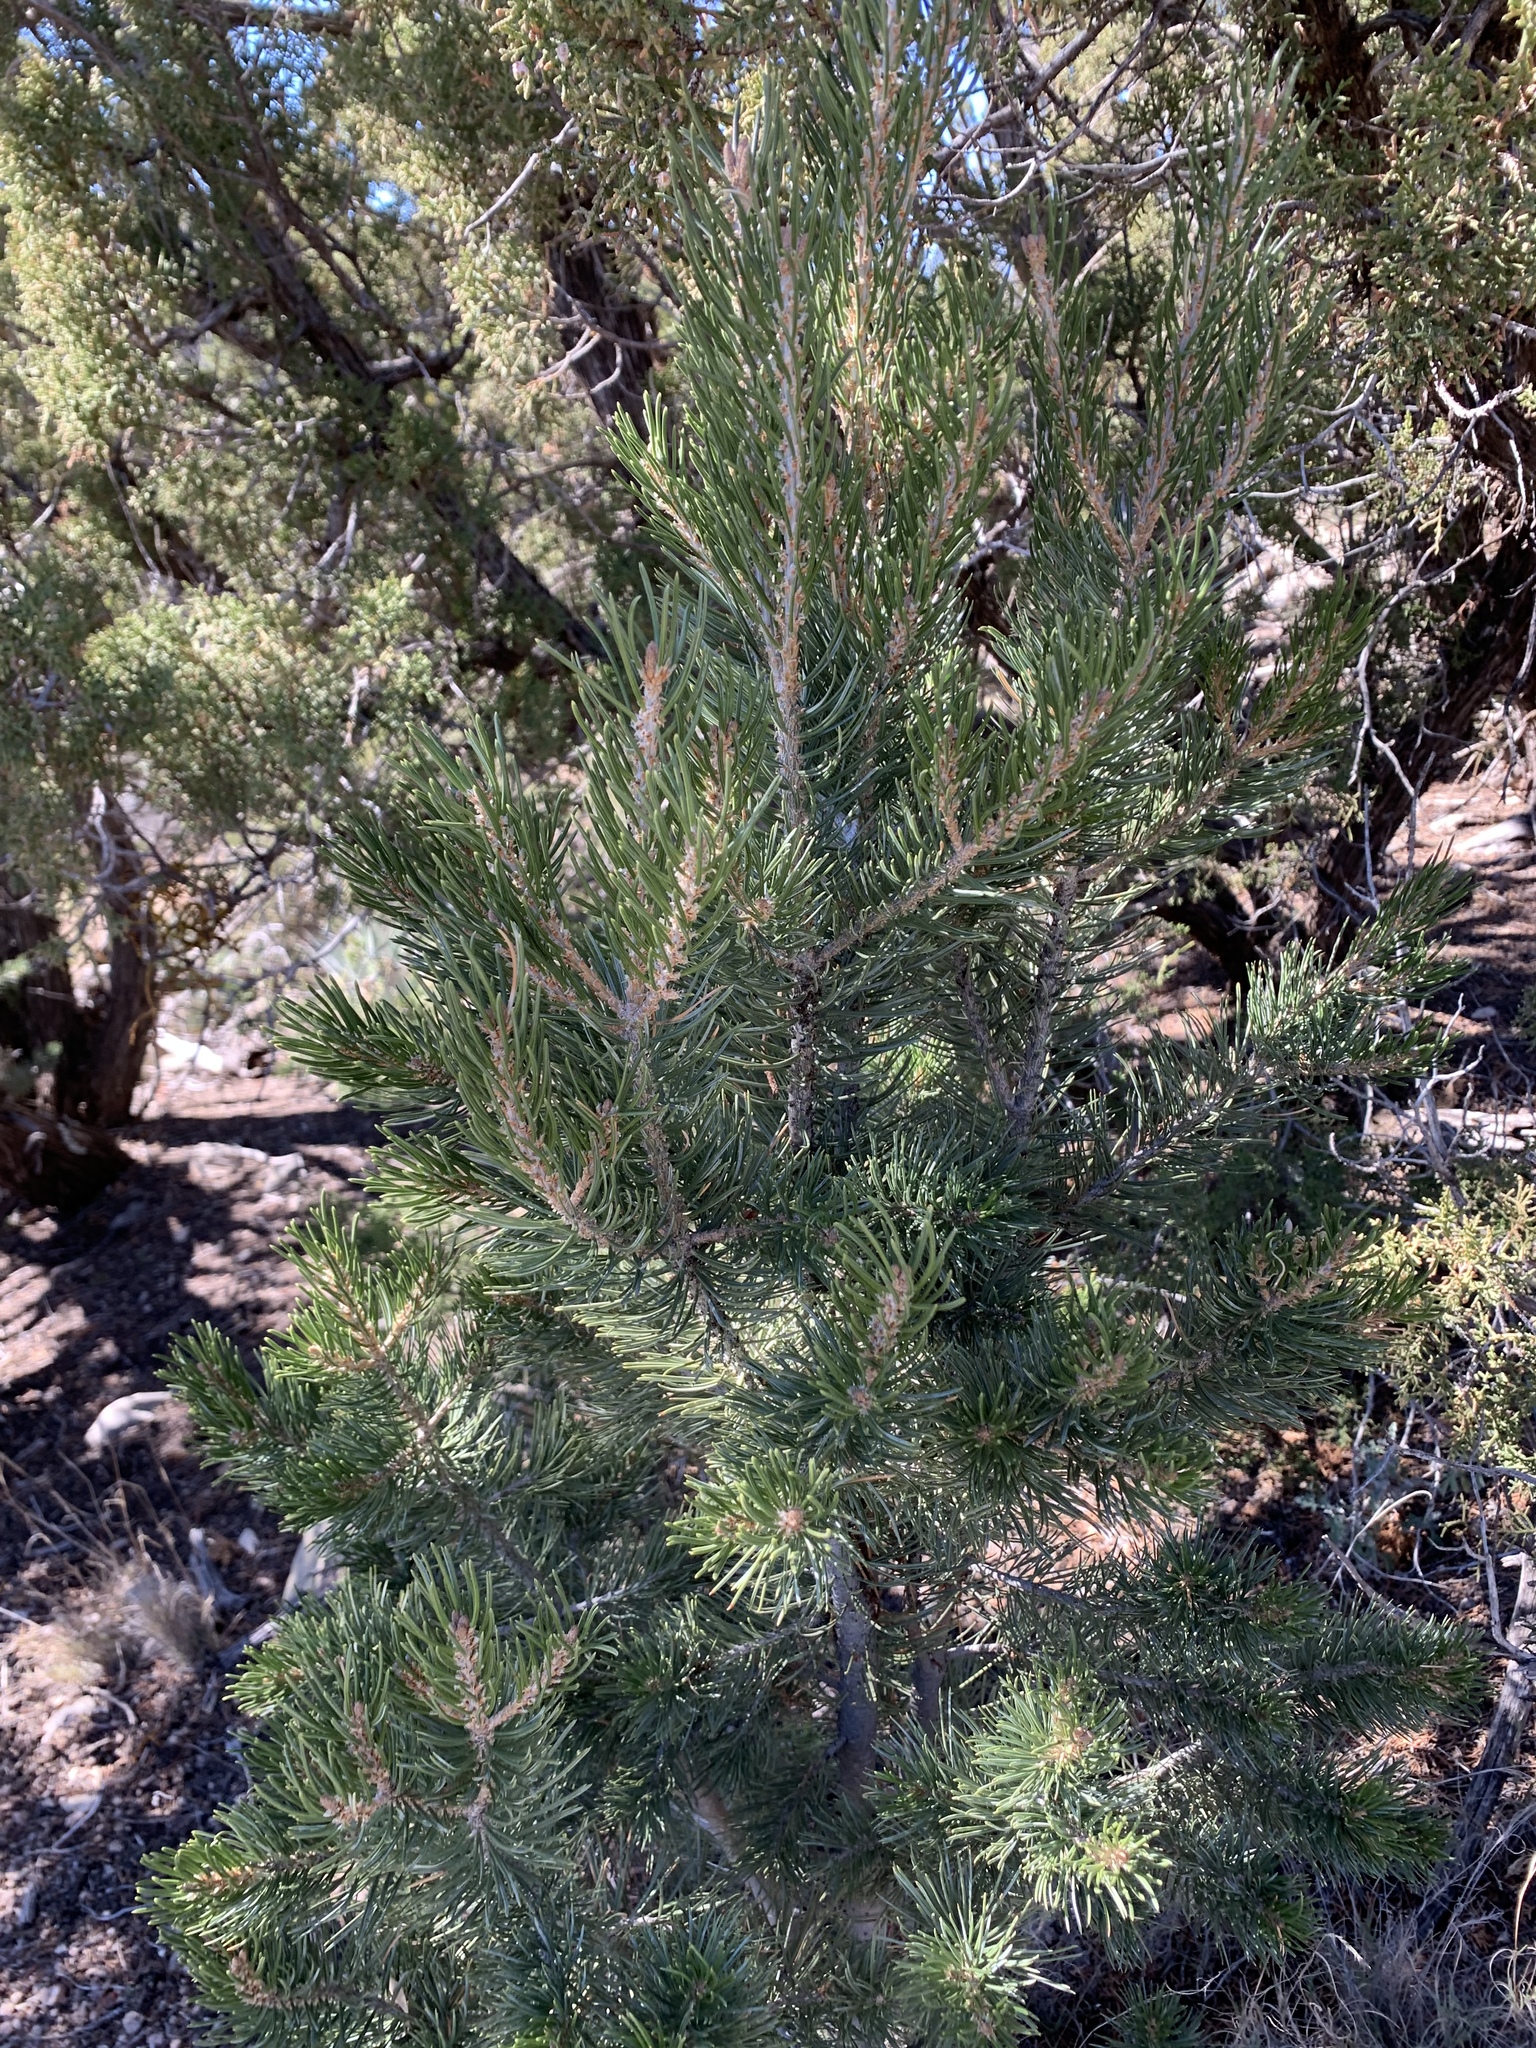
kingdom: Plantae
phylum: Tracheophyta
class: Pinopsida
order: Pinales
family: Pinaceae
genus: Pinus
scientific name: Pinus edulis
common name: Colorado pinyon
